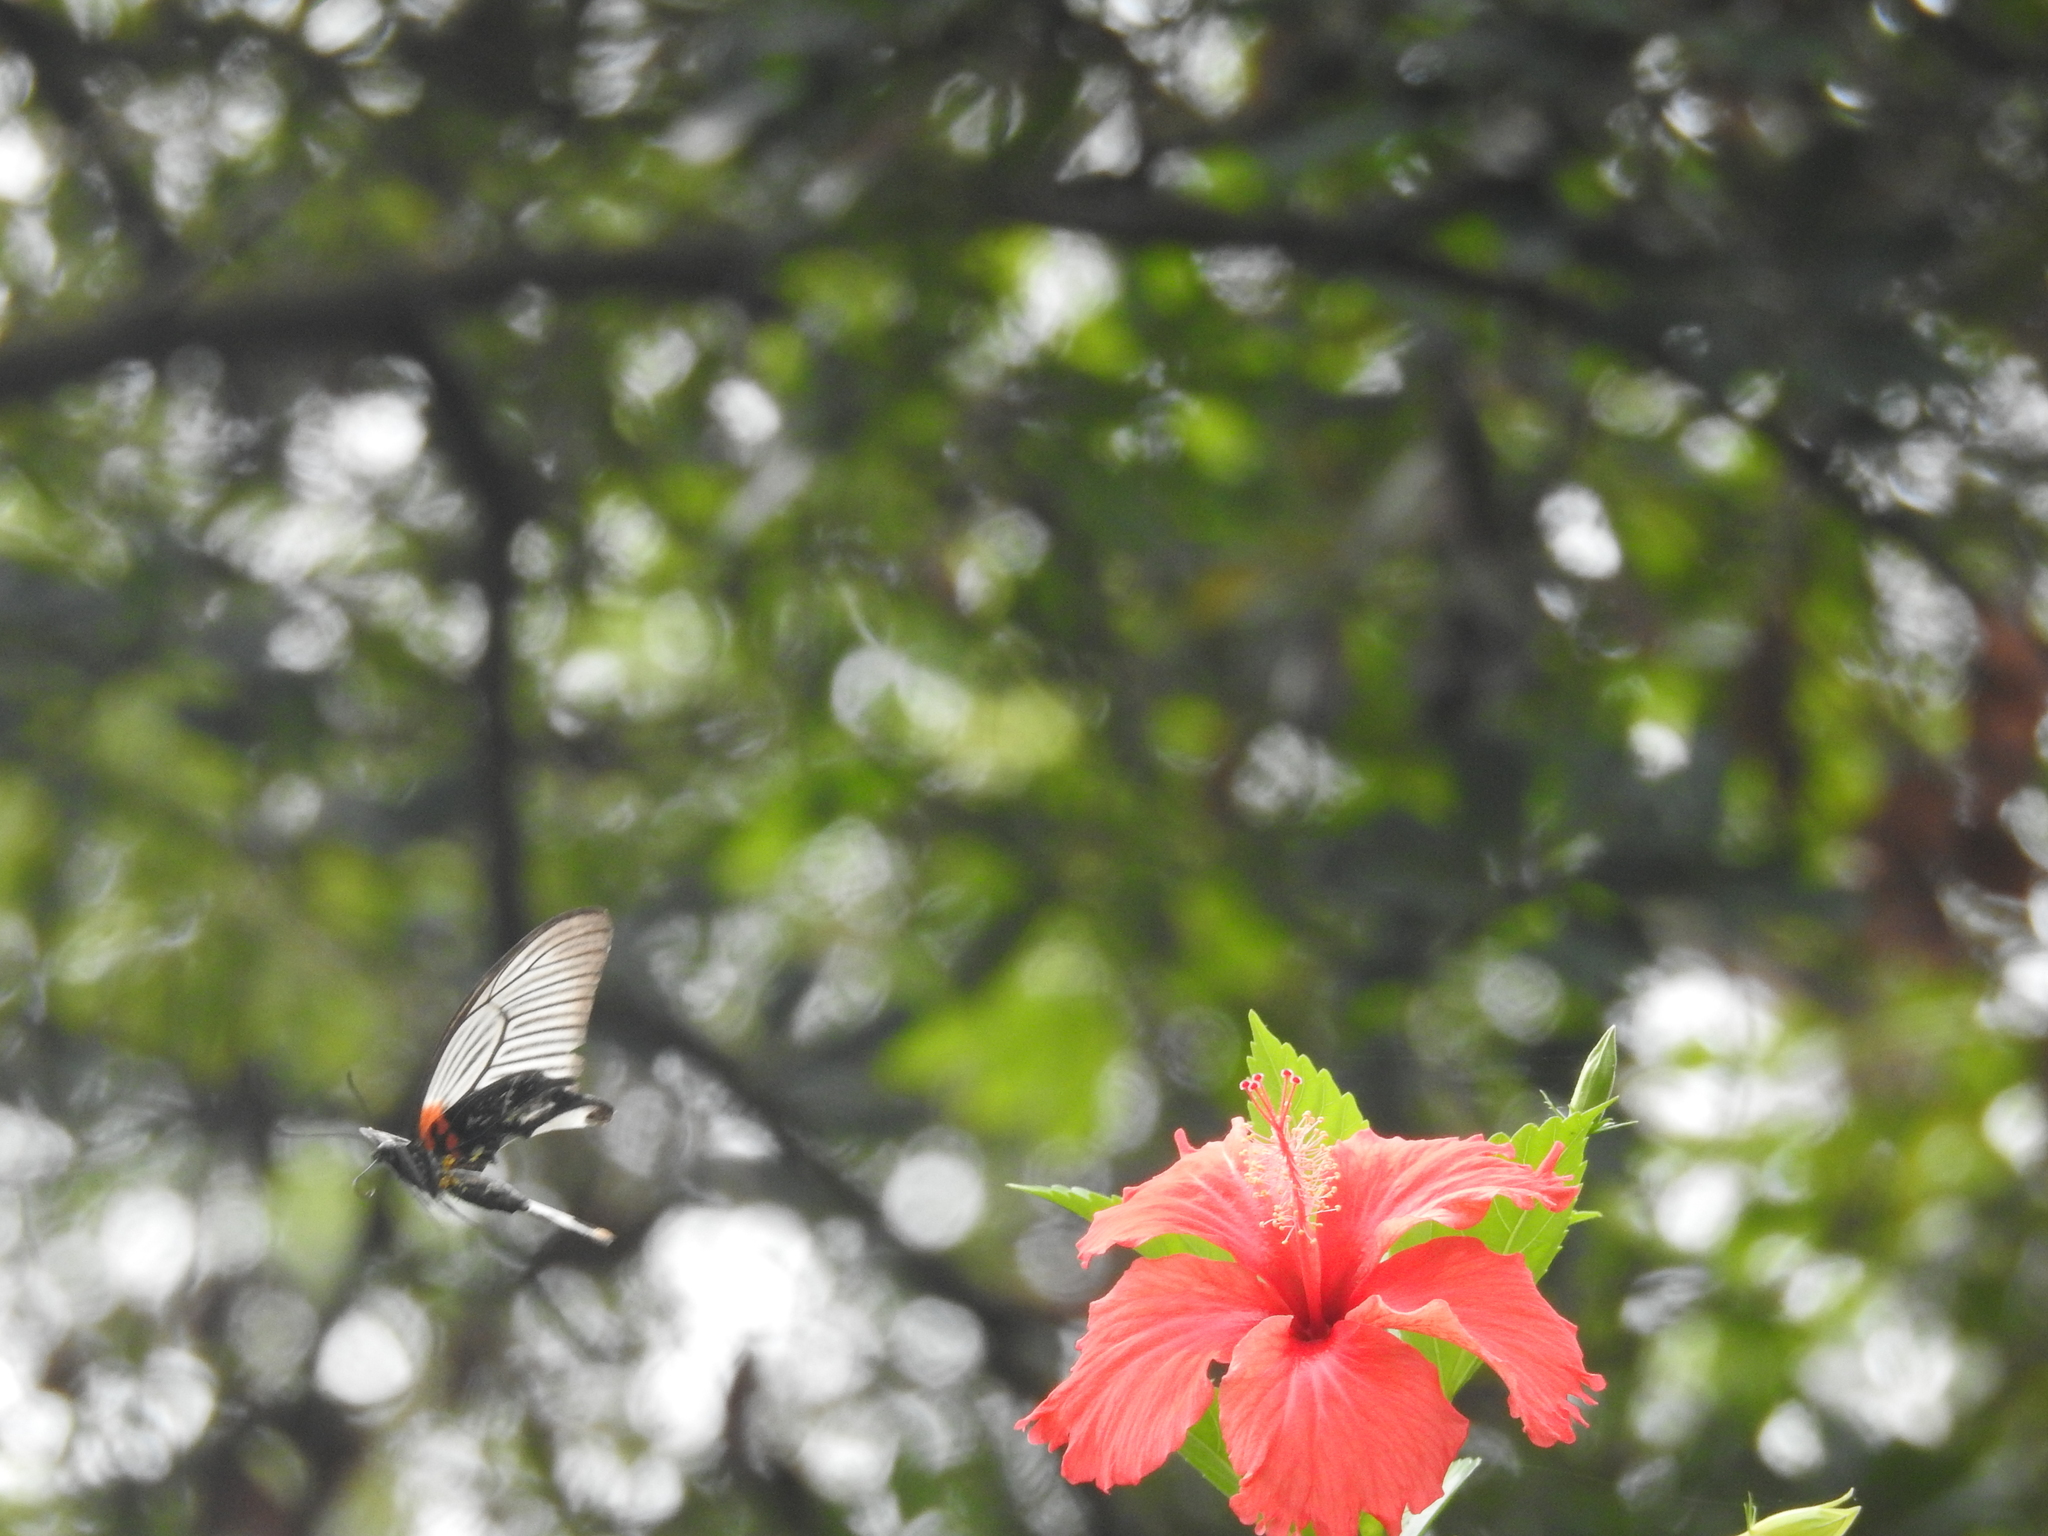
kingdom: Animalia
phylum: Arthropoda
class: Insecta
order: Lepidoptera
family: Papilionidae
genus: Papilio
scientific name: Papilio memnon
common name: Great mormon
